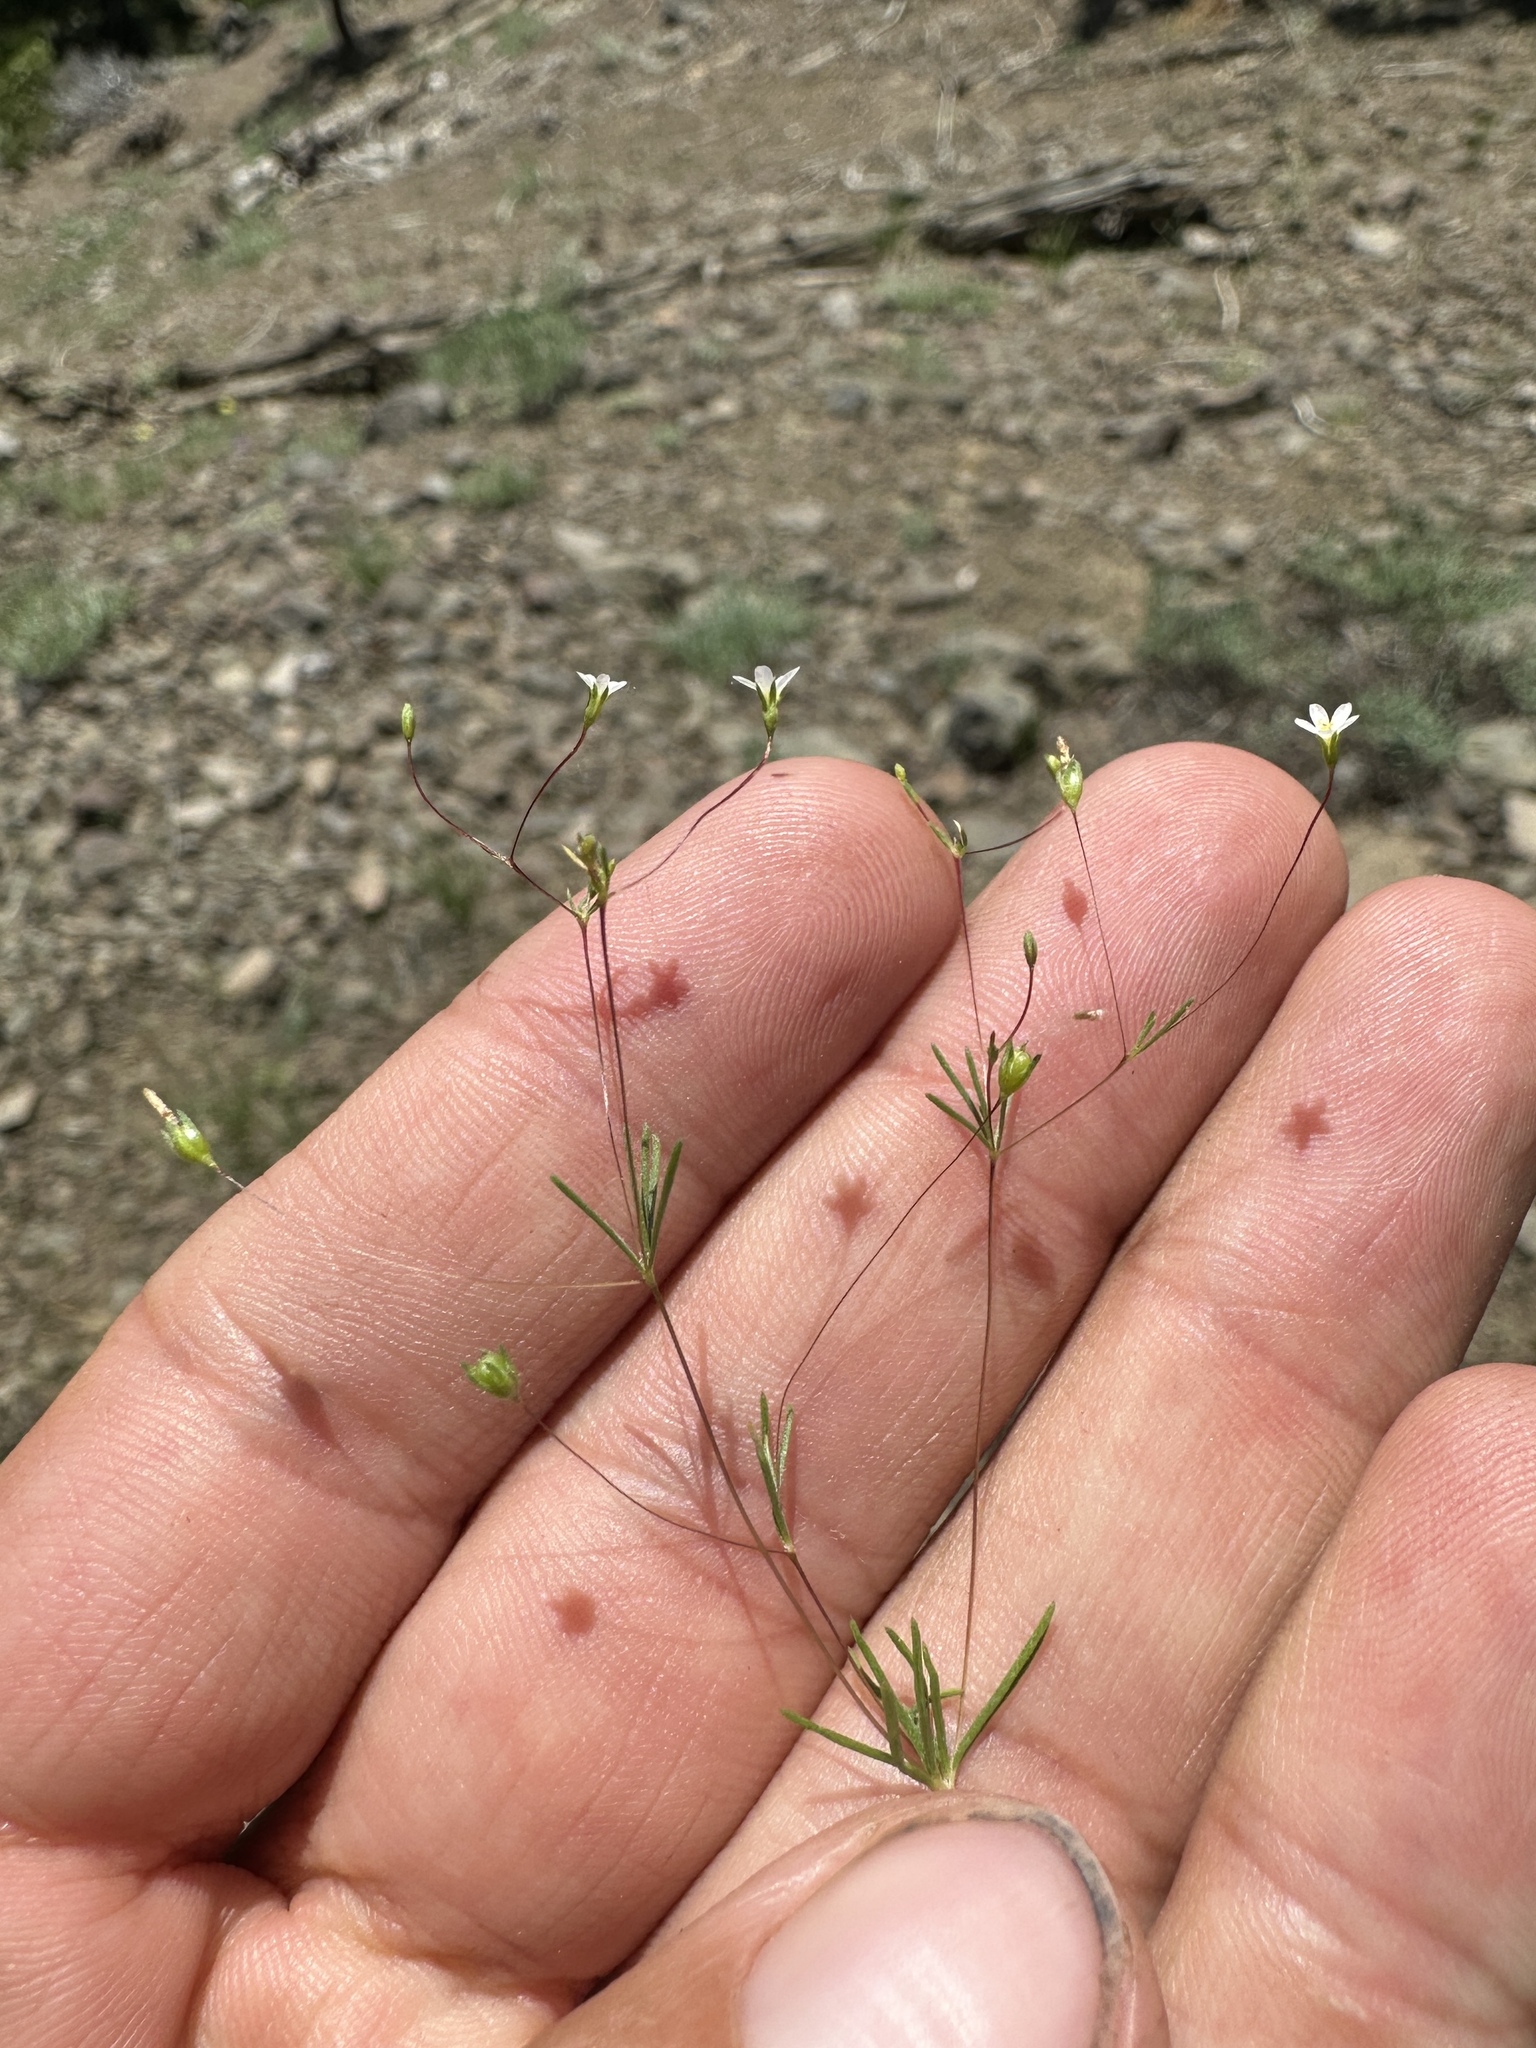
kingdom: Plantae
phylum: Tracheophyta
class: Magnoliopsida
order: Ericales
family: Polemoniaceae
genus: Linanthus
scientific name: Linanthus harknessii
